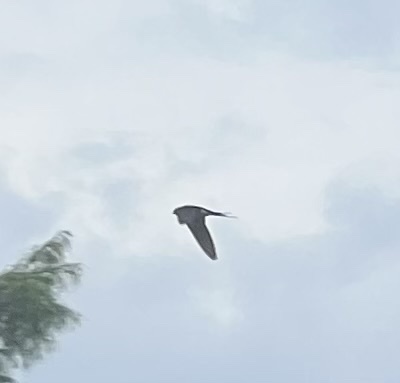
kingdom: Animalia
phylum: Chordata
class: Aves
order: Passeriformes
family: Hirundinidae
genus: Hirundo
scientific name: Hirundo rustica
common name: Barn swallow
